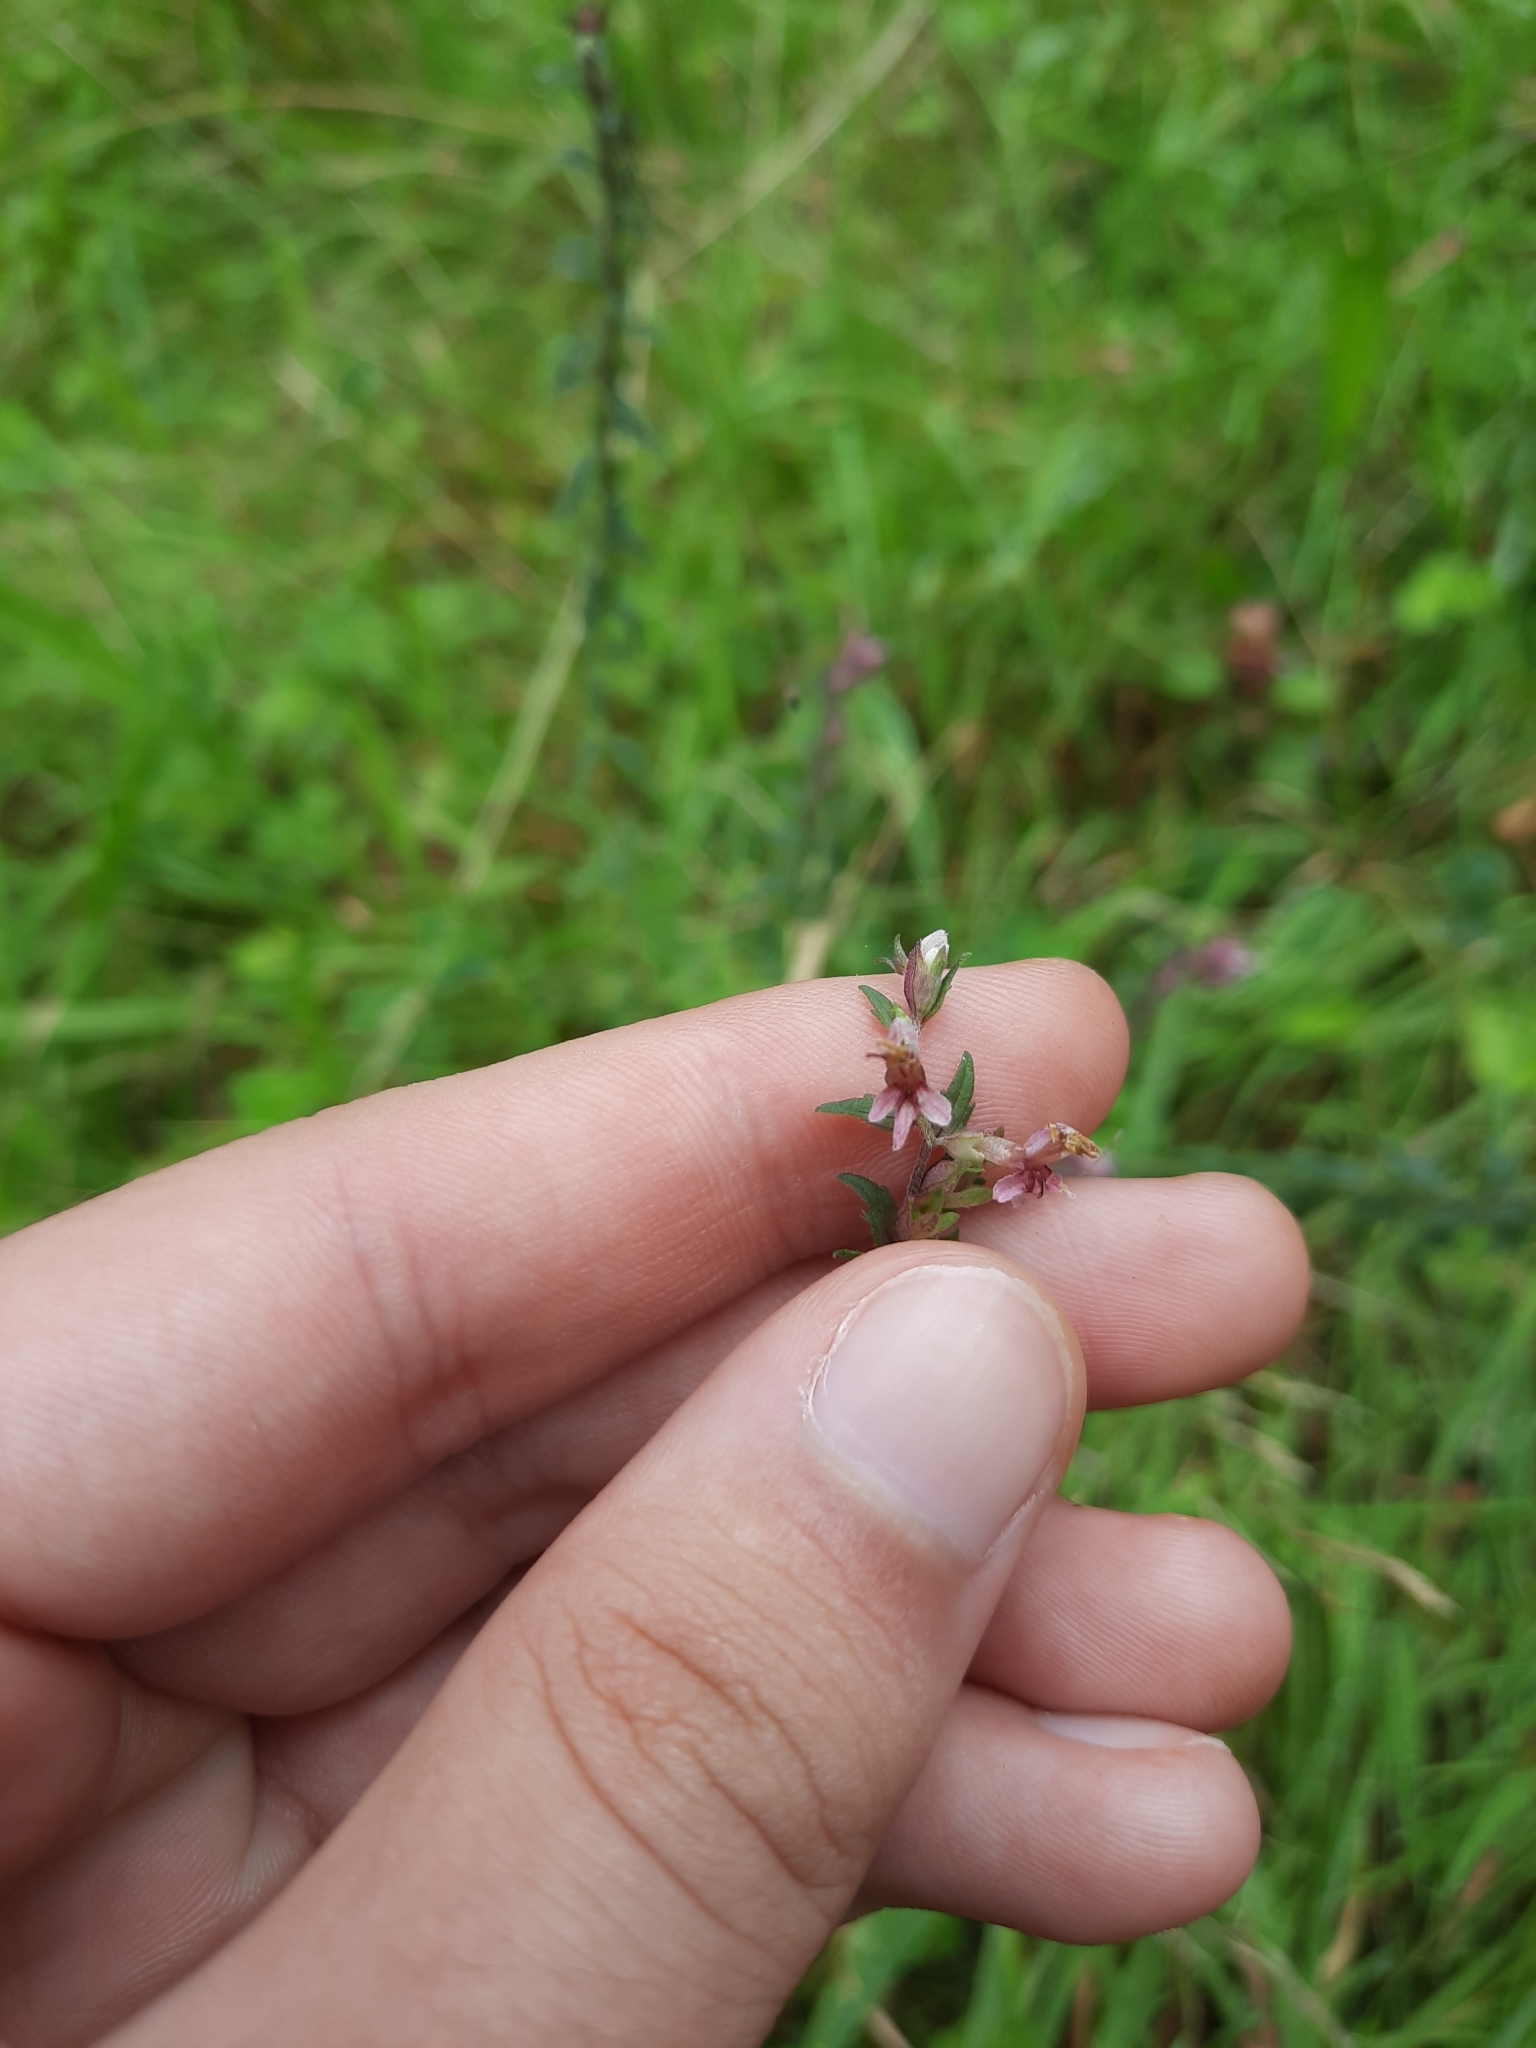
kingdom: Plantae
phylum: Tracheophyta
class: Magnoliopsida
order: Lamiales
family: Orobanchaceae
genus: Odontites
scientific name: Odontites vulgaris
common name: Broomrape
